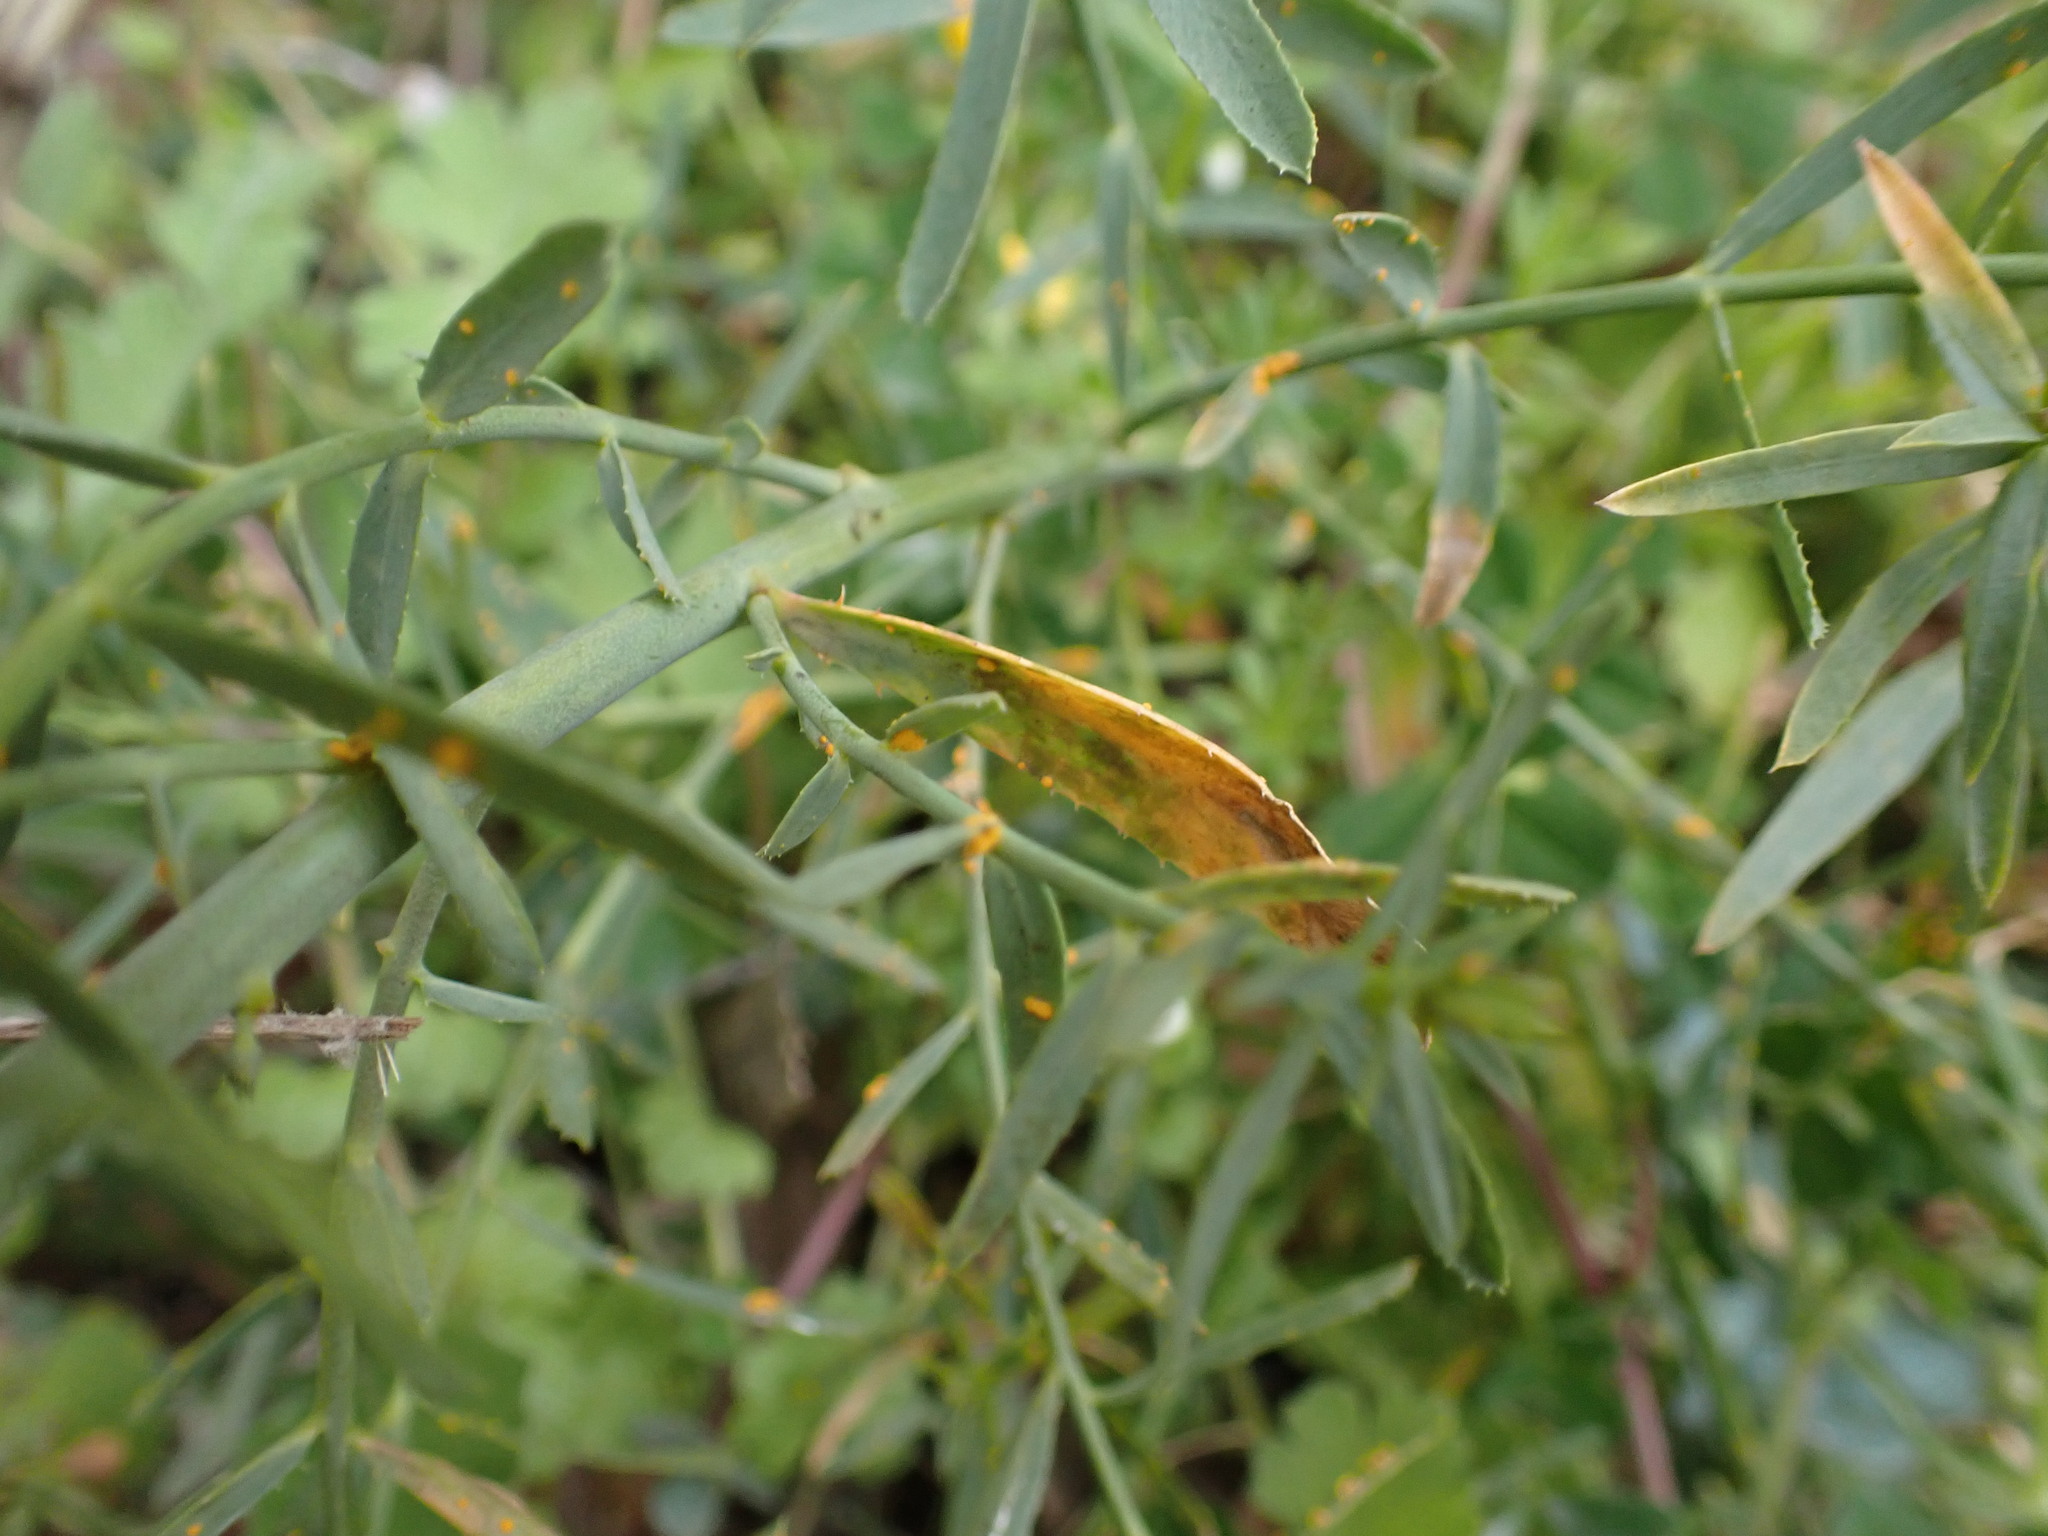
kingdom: Fungi
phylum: Basidiomycota
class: Pucciniomycetes
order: Pucciniales
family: Melampsoraceae
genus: Melampsora
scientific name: Melampsora euphorbiae
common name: Spurge rust
